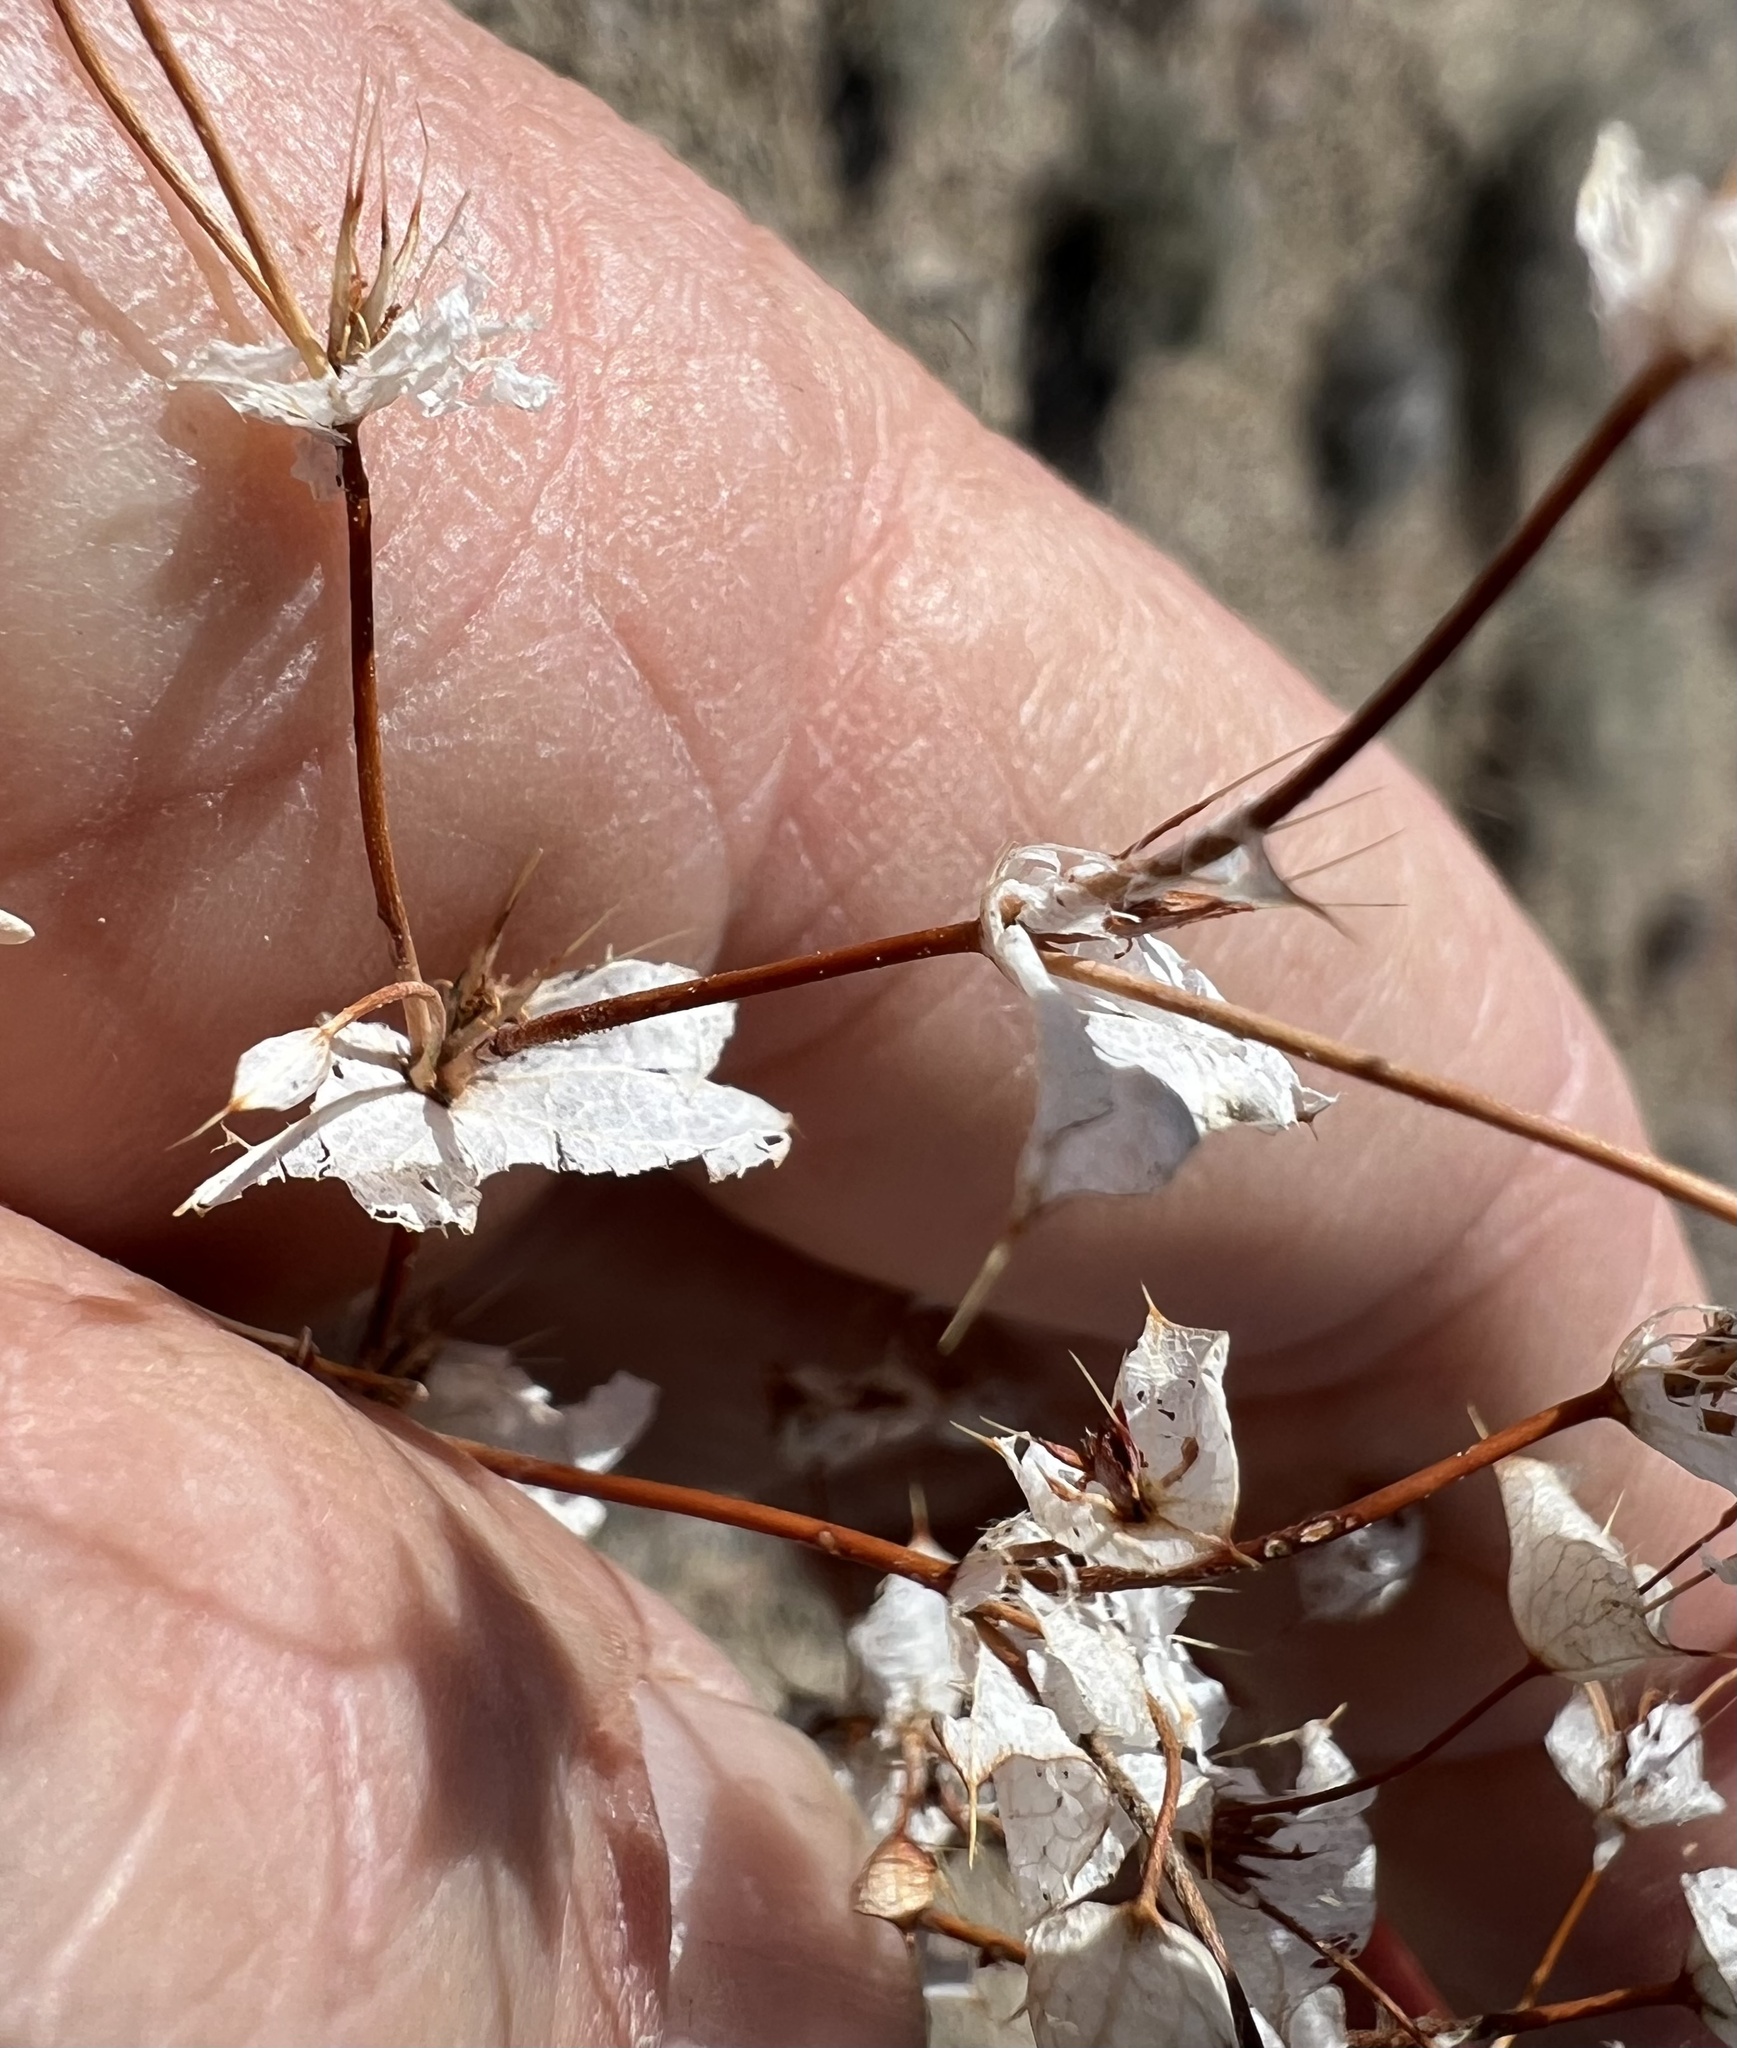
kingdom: Plantae
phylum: Tracheophyta
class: Magnoliopsida
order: Caryophyllales
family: Polygonaceae
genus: Oxytheca
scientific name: Oxytheca perfoliata
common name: Round-leaf puncturebract
